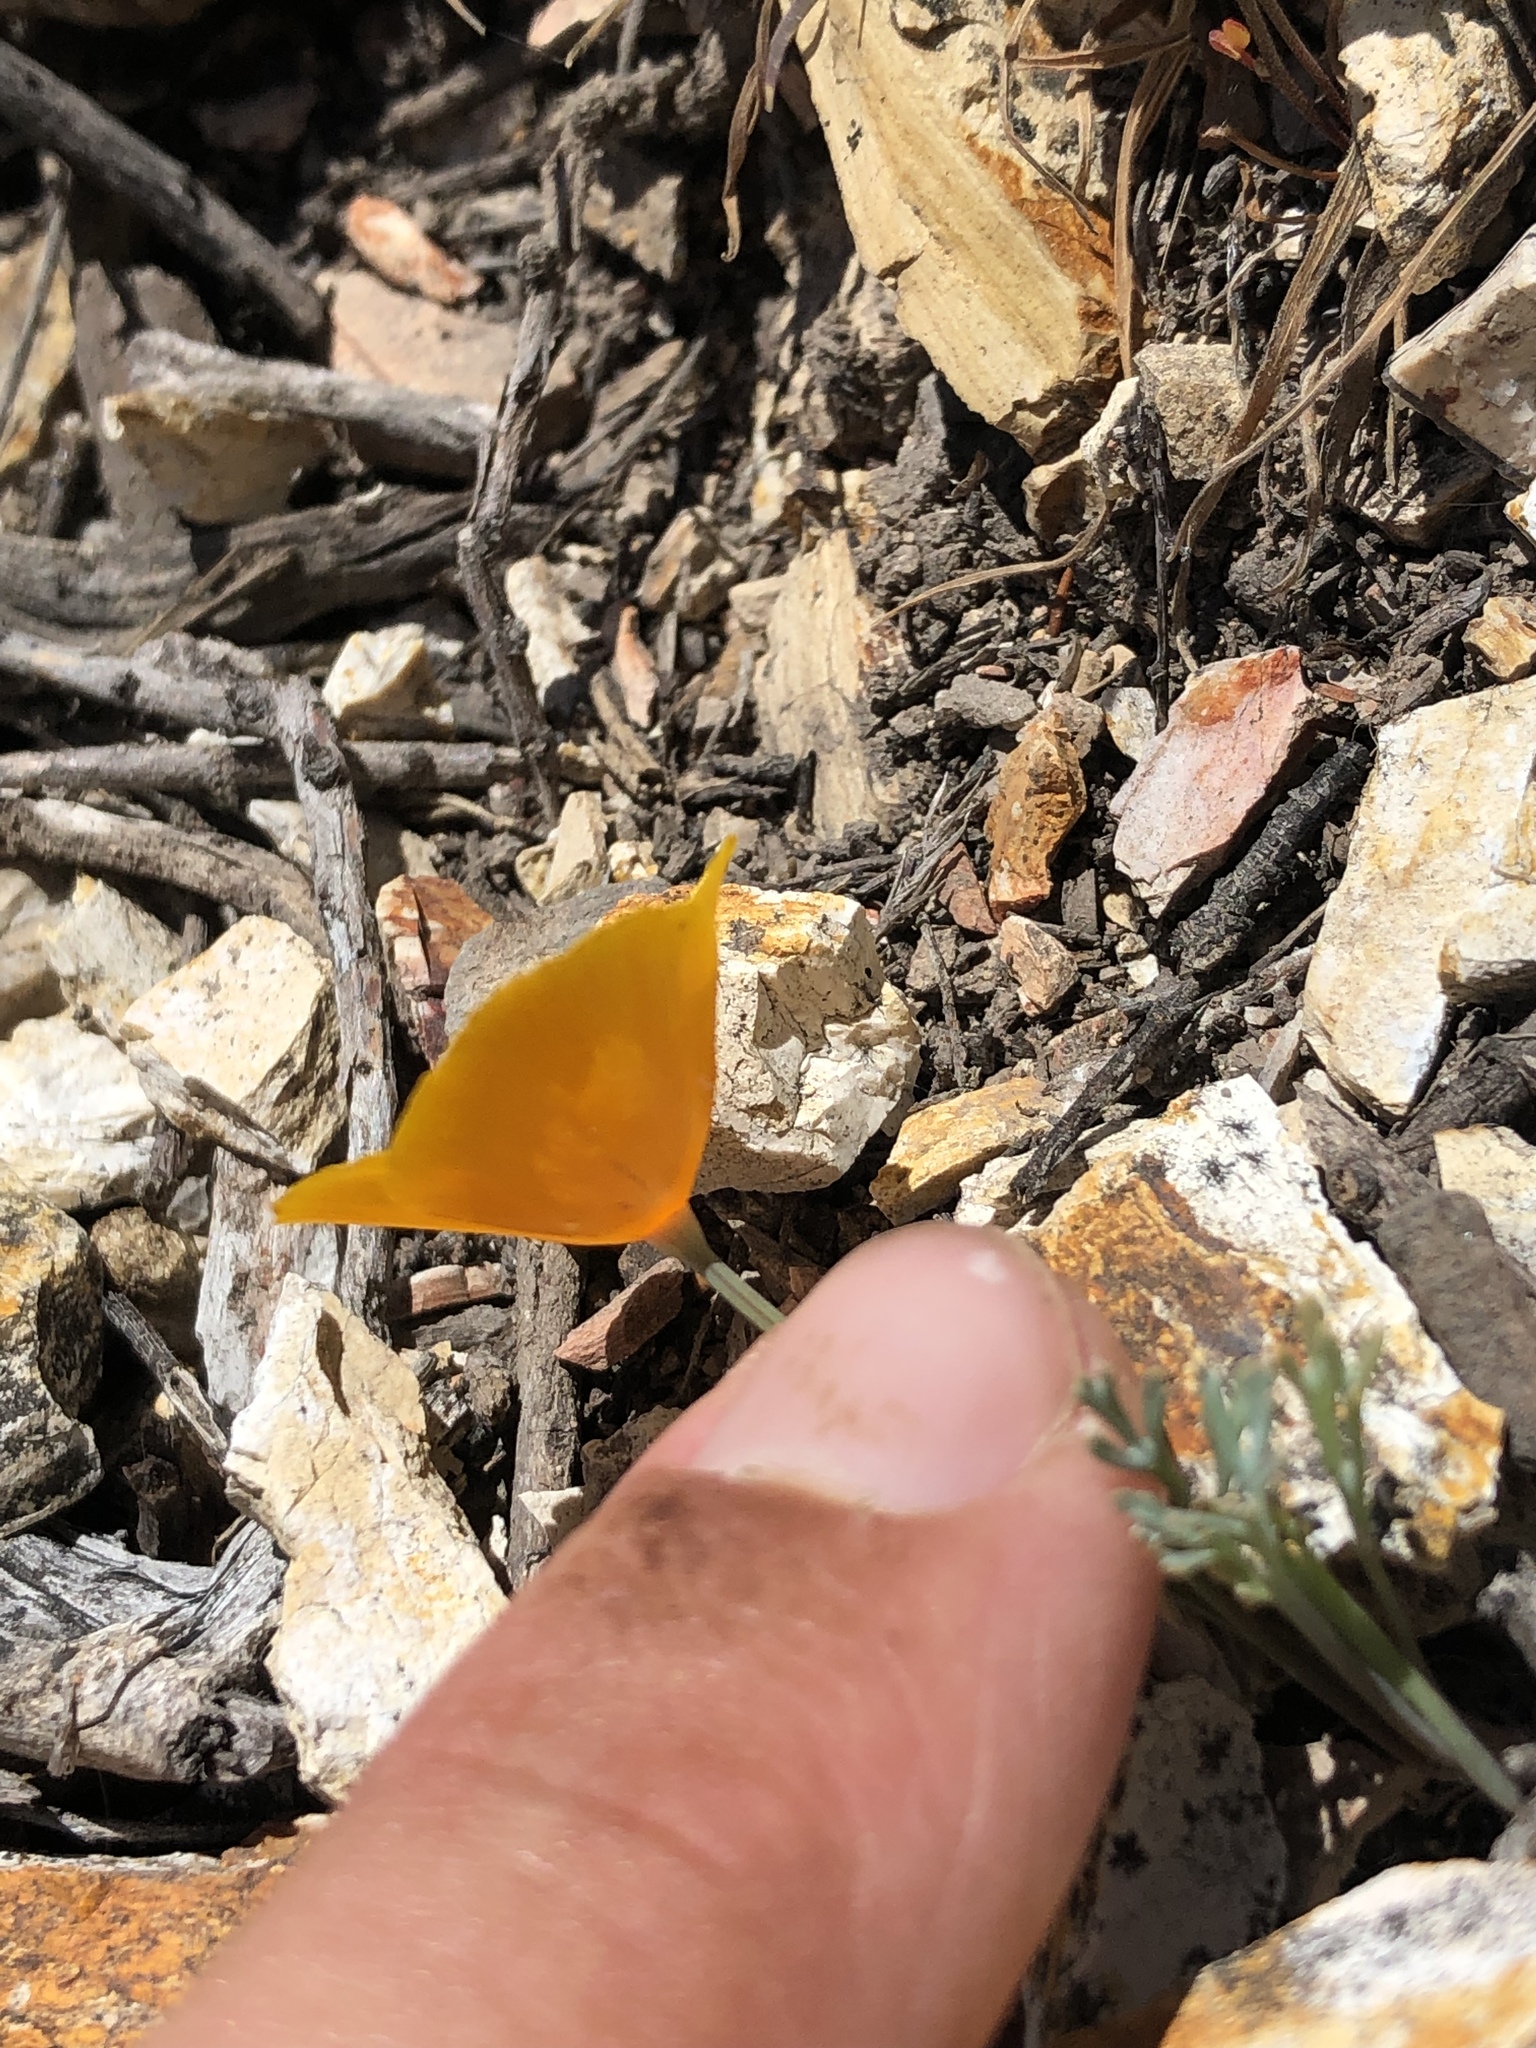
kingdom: Plantae
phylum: Tracheophyta
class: Magnoliopsida
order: Ranunculales
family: Papaveraceae
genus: Eschscholzia
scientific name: Eschscholzia caespitosa
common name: Tufted california-poppy
